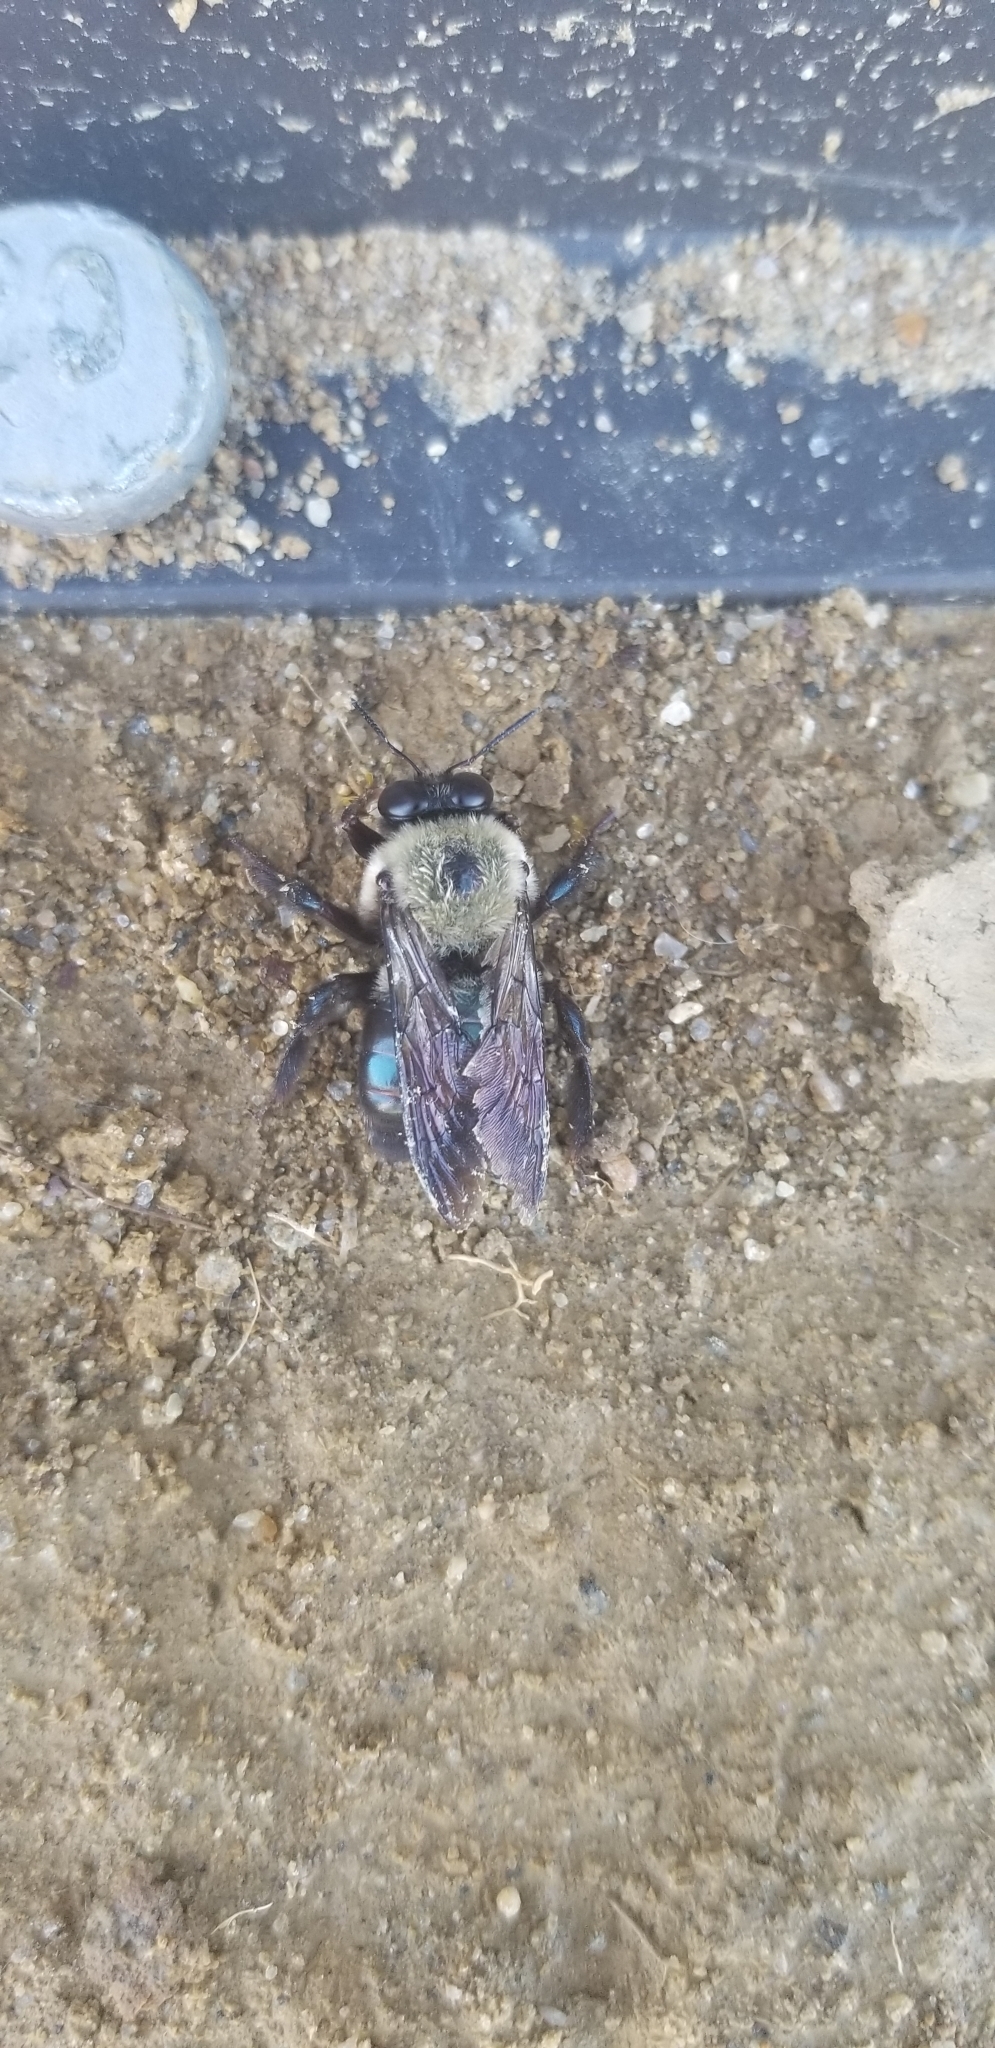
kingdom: Animalia
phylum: Arthropoda
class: Insecta
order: Hymenoptera
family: Apidae
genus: Xylocopa
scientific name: Xylocopa virginica
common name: Carpenter bee
